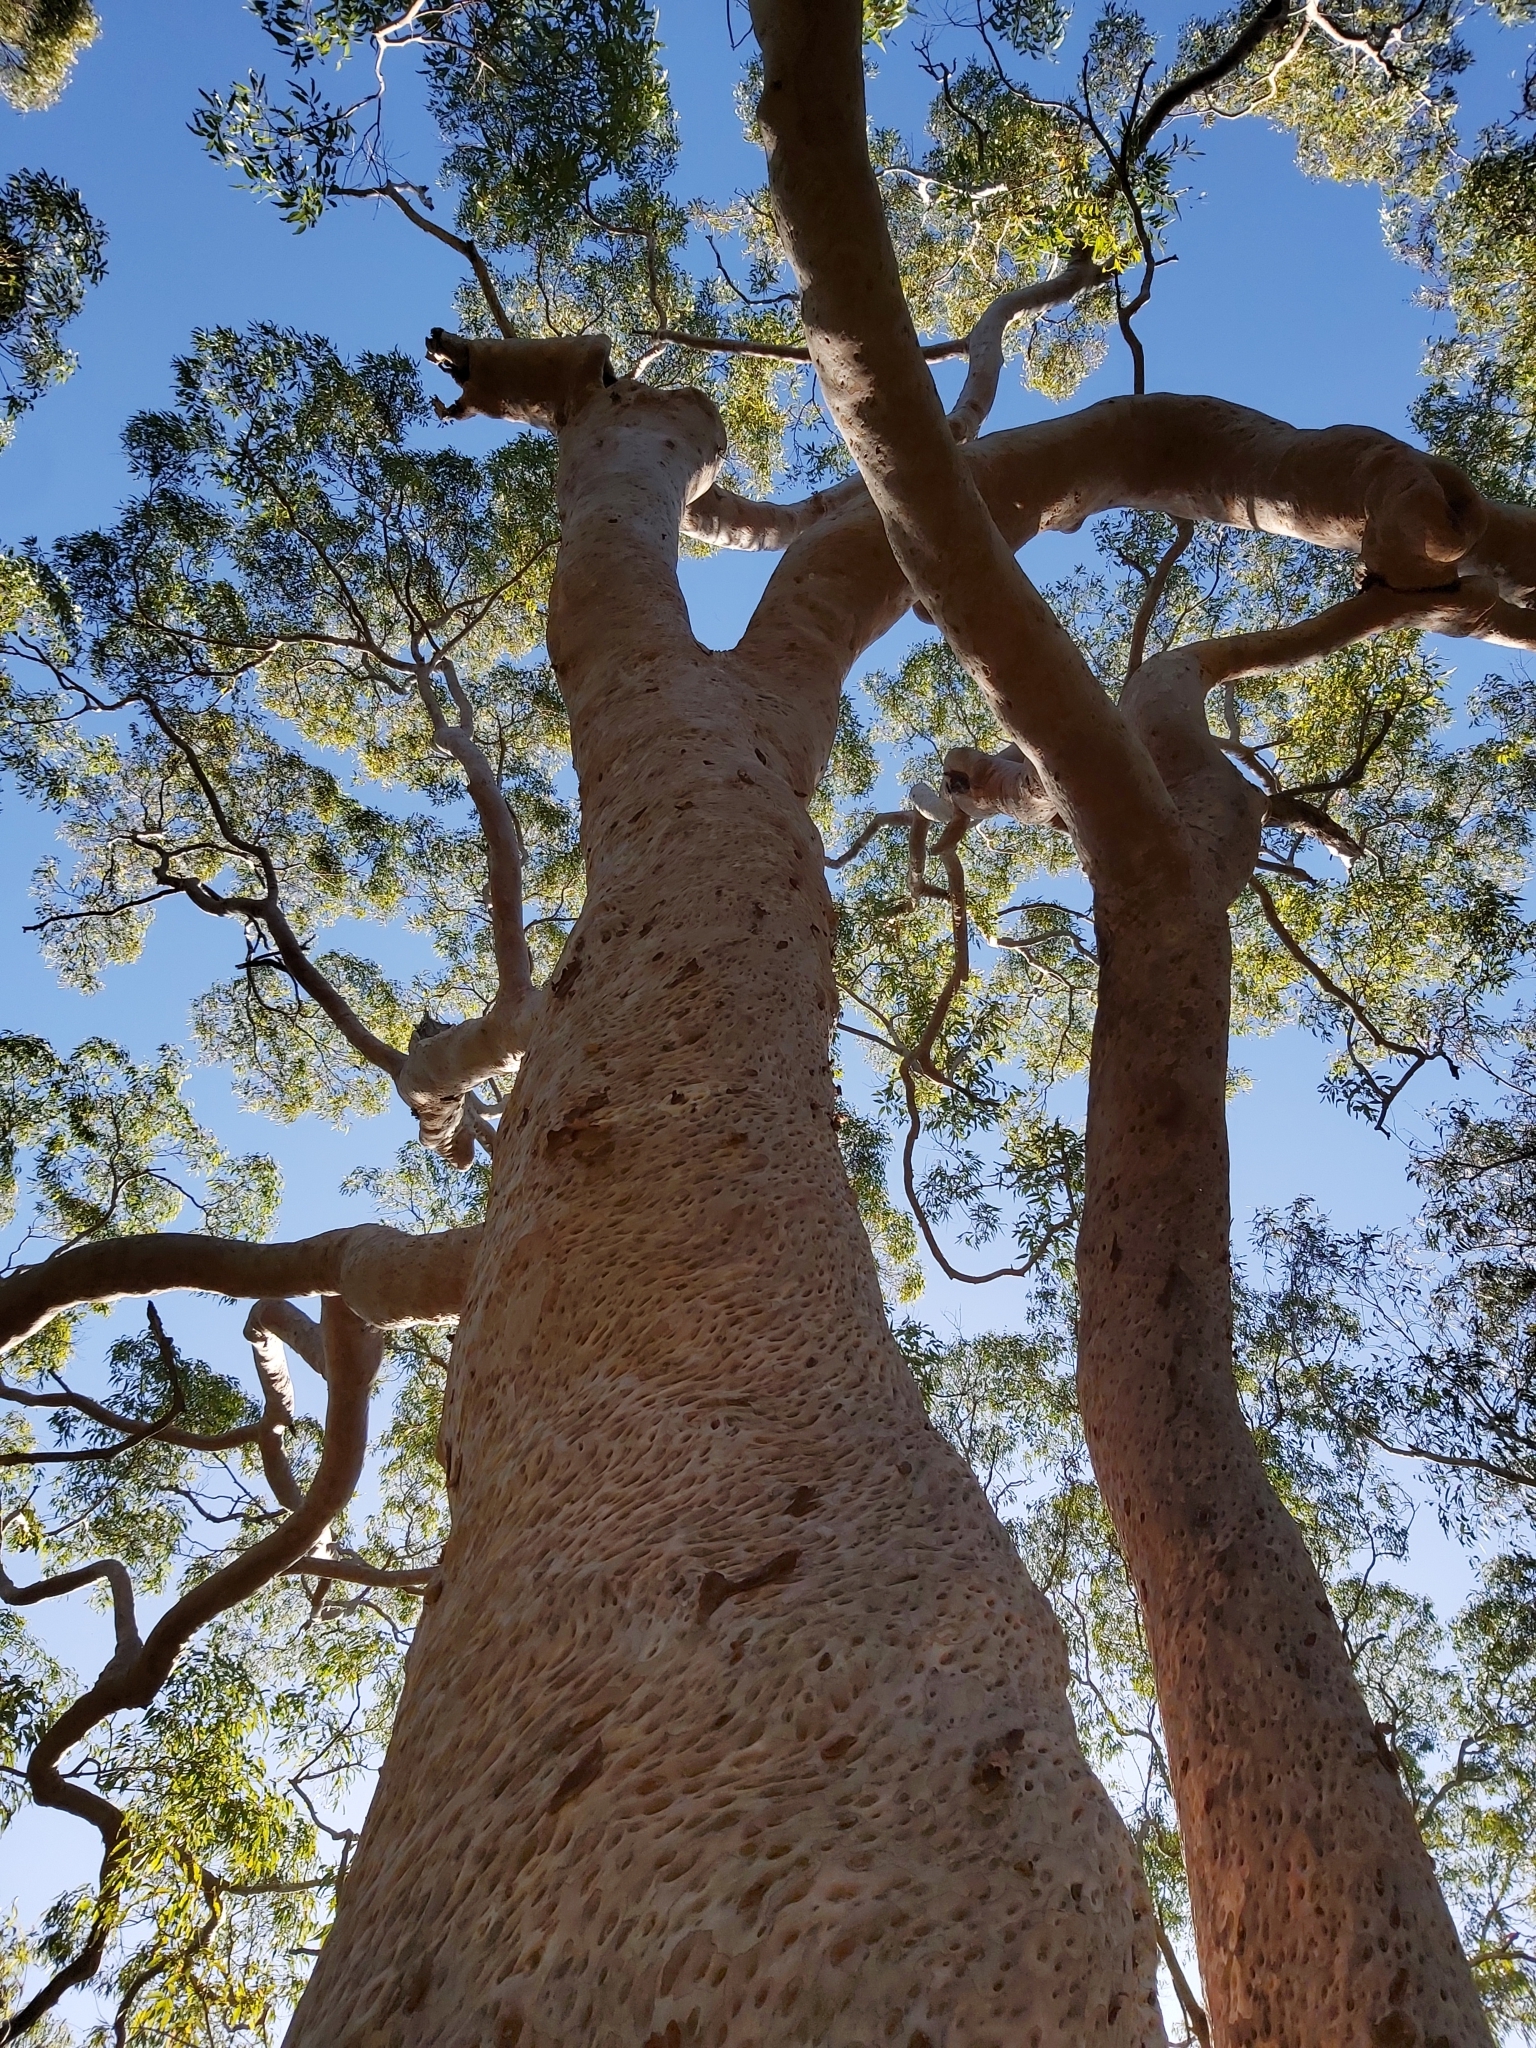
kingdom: Plantae
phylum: Tracheophyta
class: Magnoliopsida
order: Myrtales
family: Myrtaceae
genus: Angophora
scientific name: Angophora costata
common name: Gum myrtle
